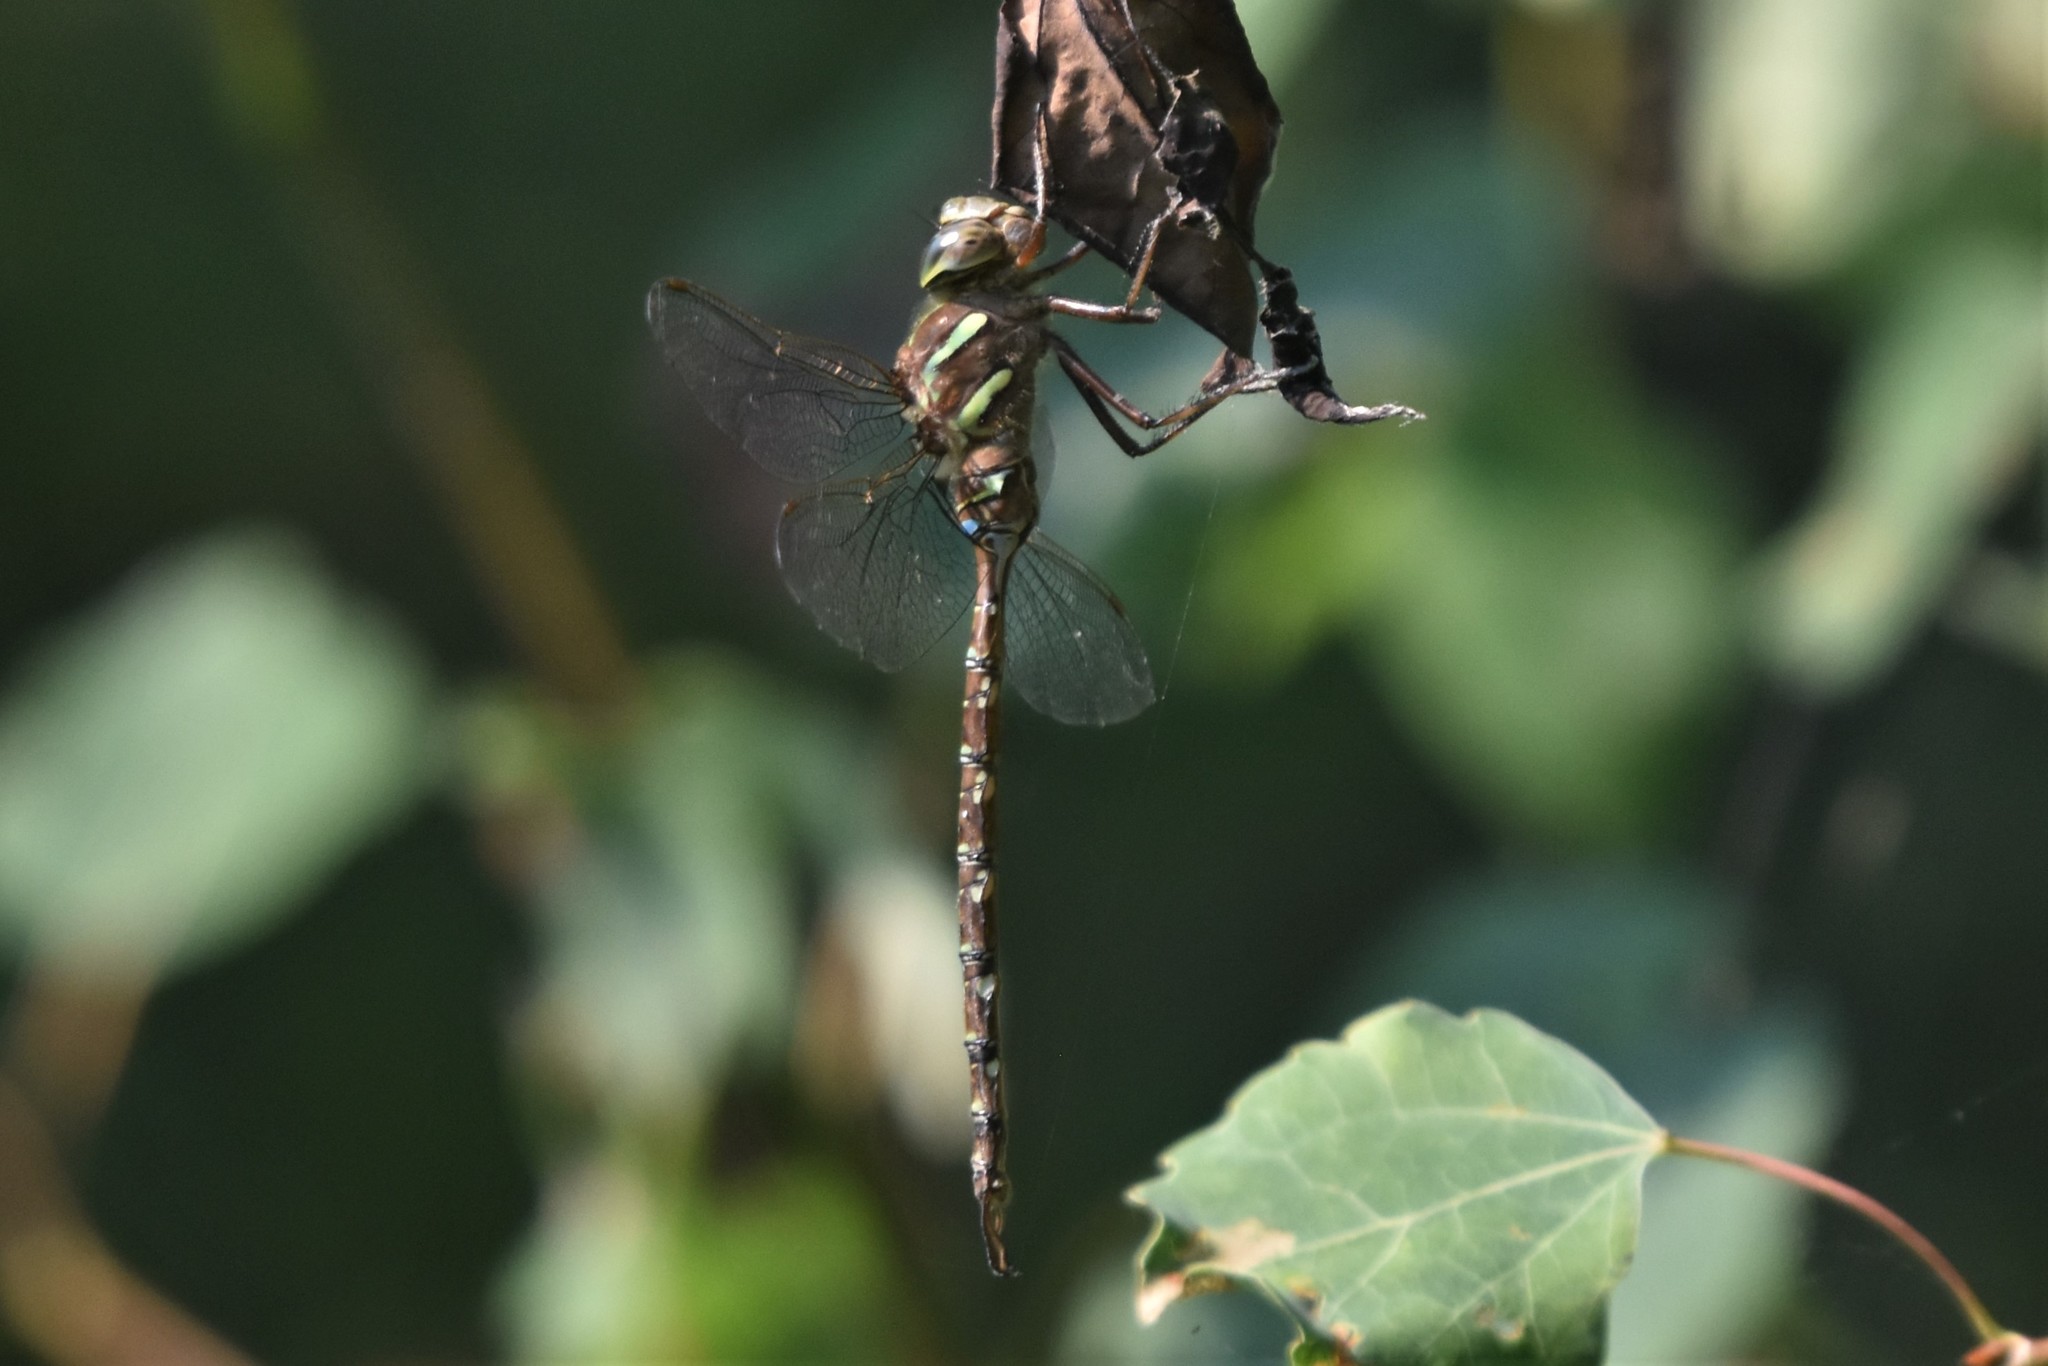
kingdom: Animalia
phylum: Arthropoda
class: Insecta
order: Odonata
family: Aeshnidae
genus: Aeshna
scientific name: Aeshna umbrosa
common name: Shadow darner
